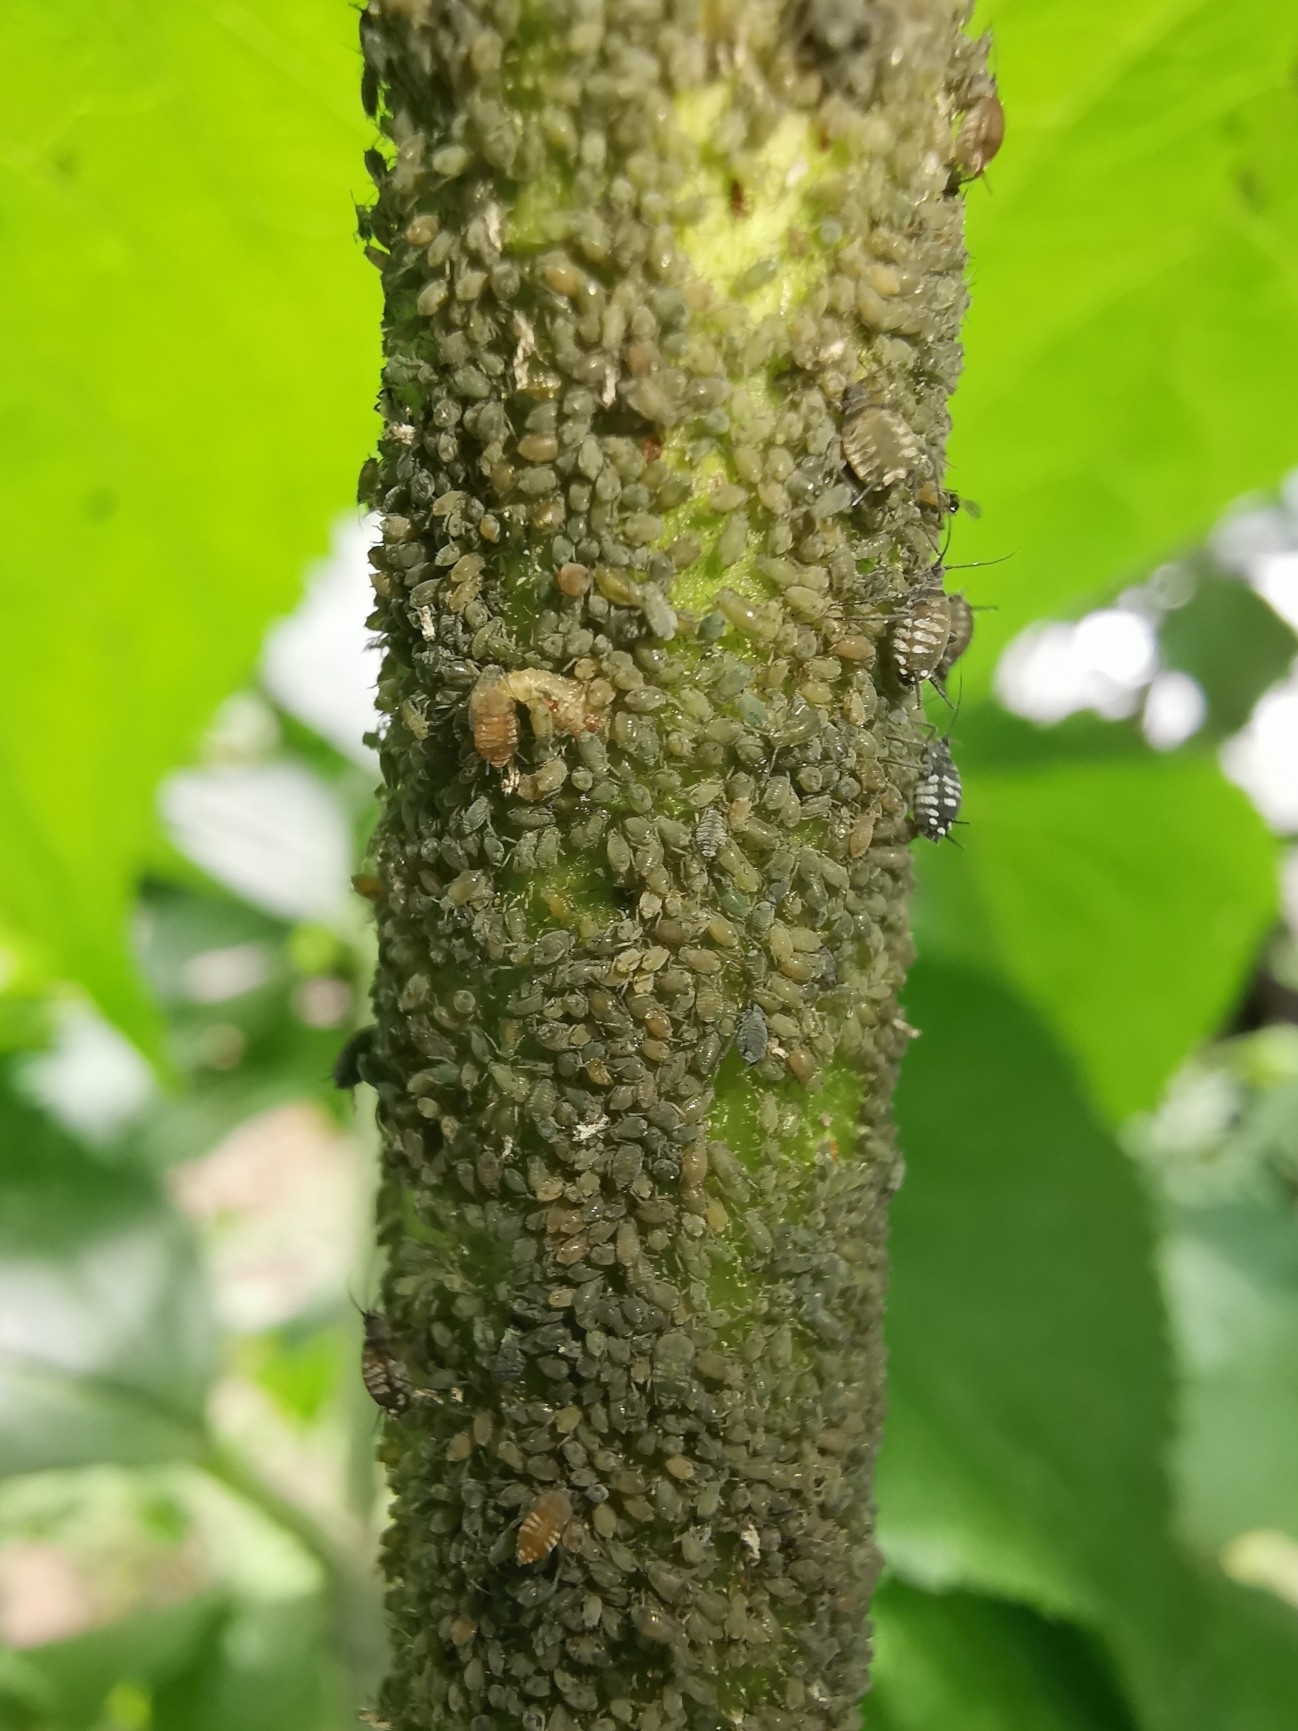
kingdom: Animalia
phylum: Arthropoda
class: Insecta
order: Hemiptera
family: Aphididae
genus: Aphis
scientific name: Aphis sambuci
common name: Elder aphid
